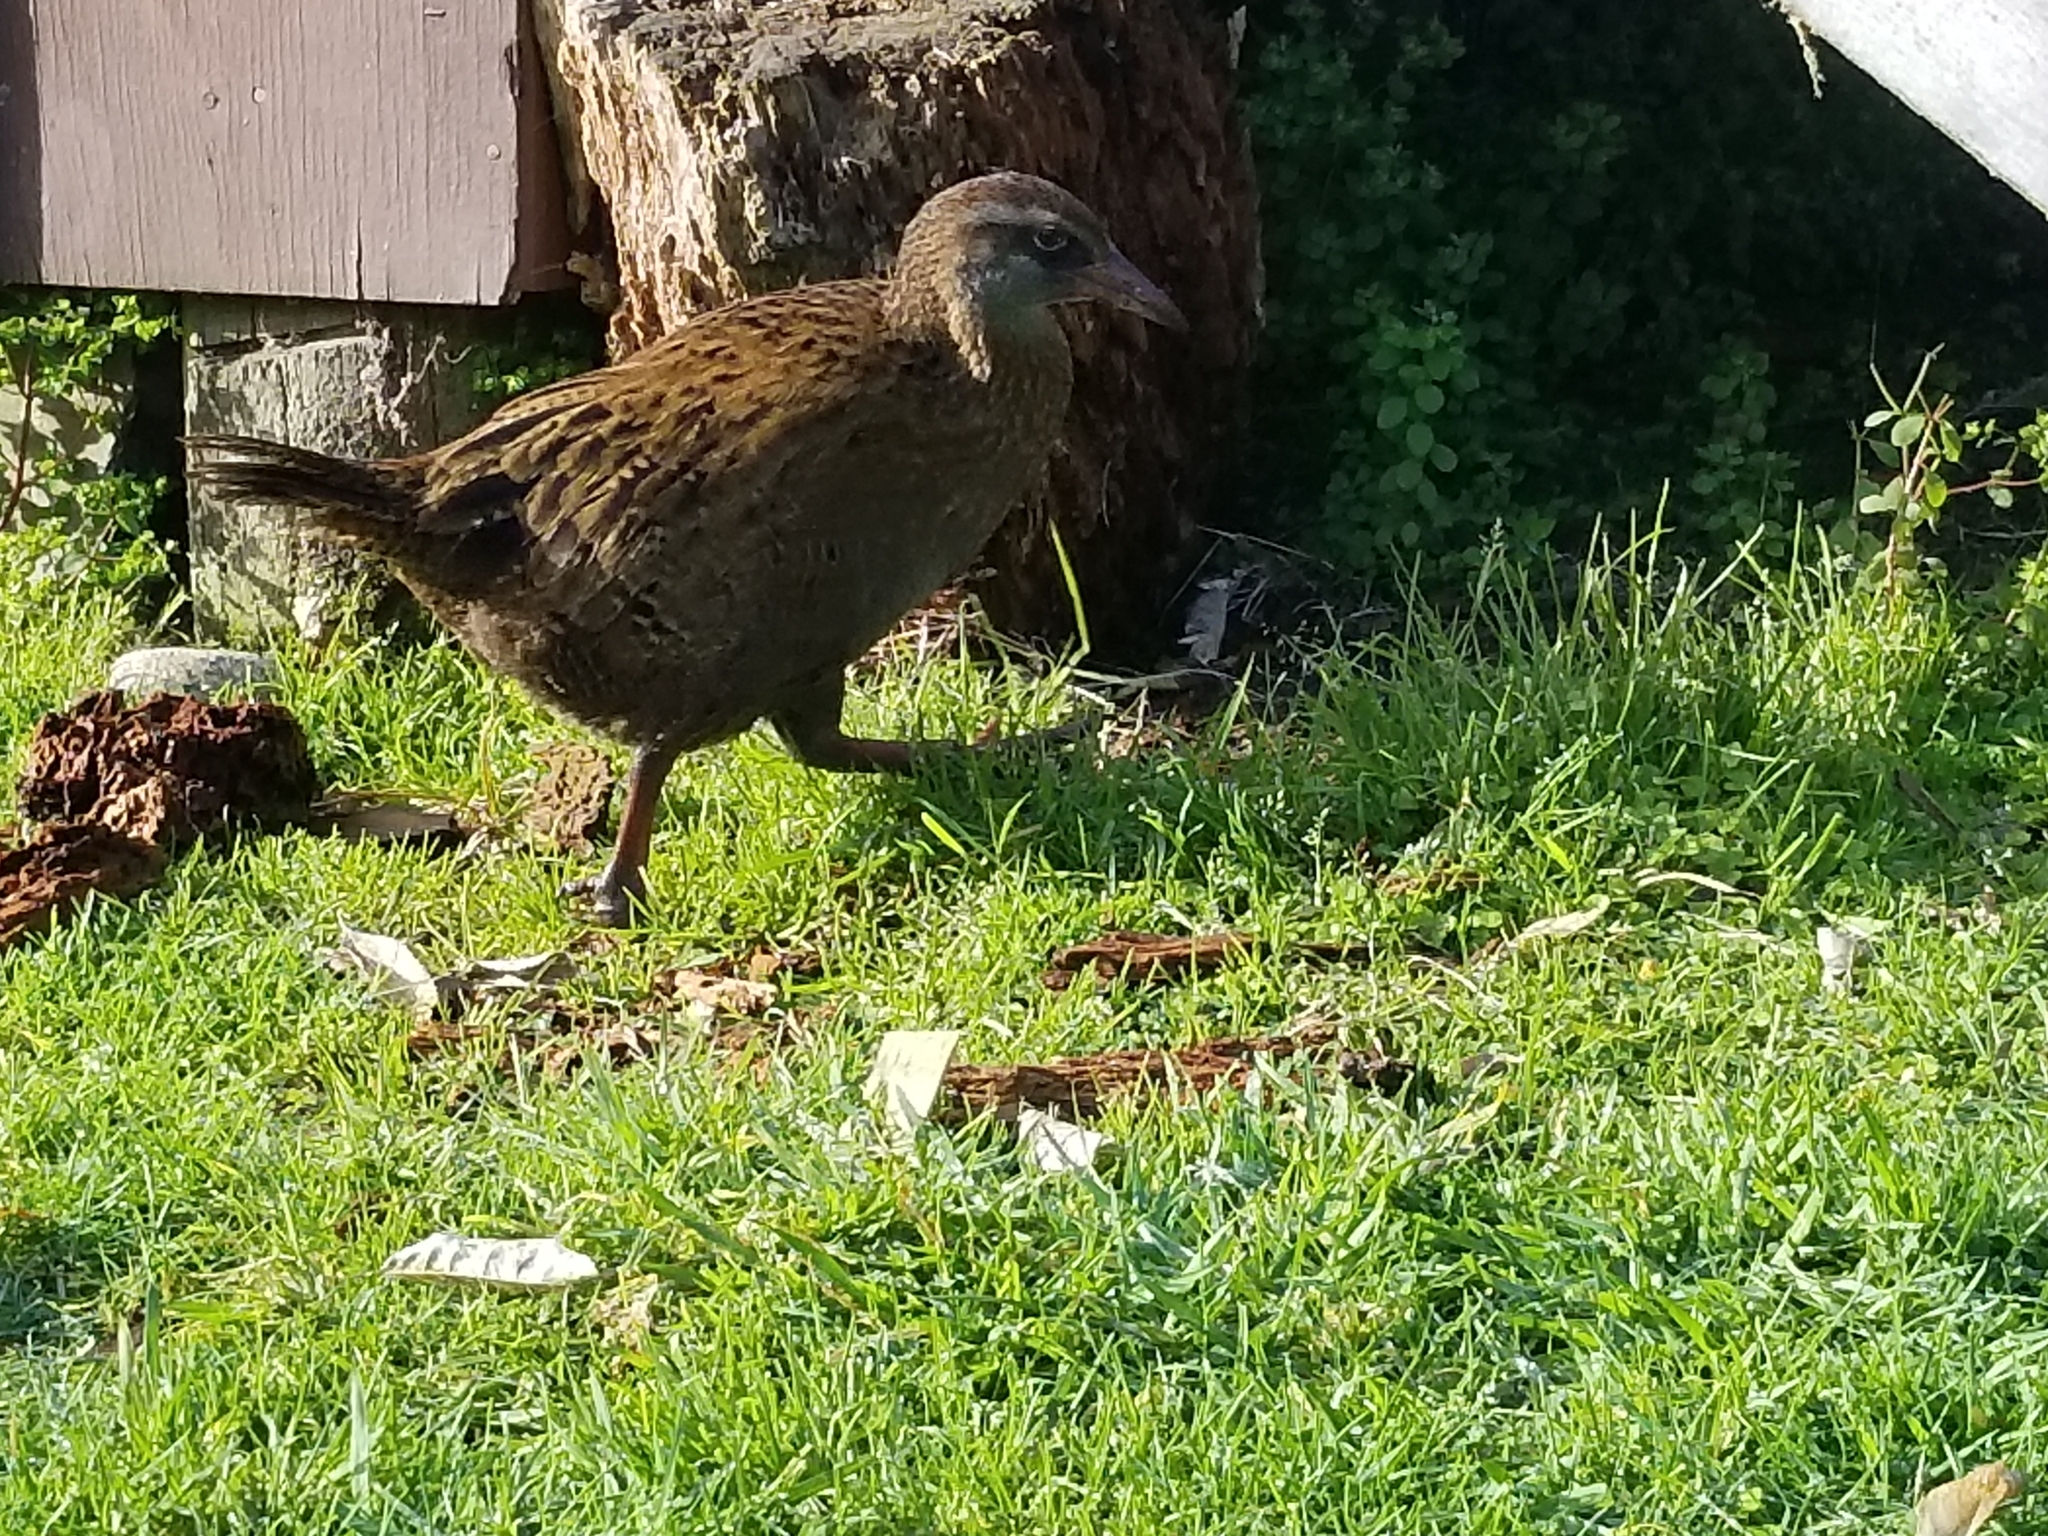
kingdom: Animalia
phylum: Chordata
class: Aves
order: Gruiformes
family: Rallidae
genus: Gallirallus
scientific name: Gallirallus australis
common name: Weka
